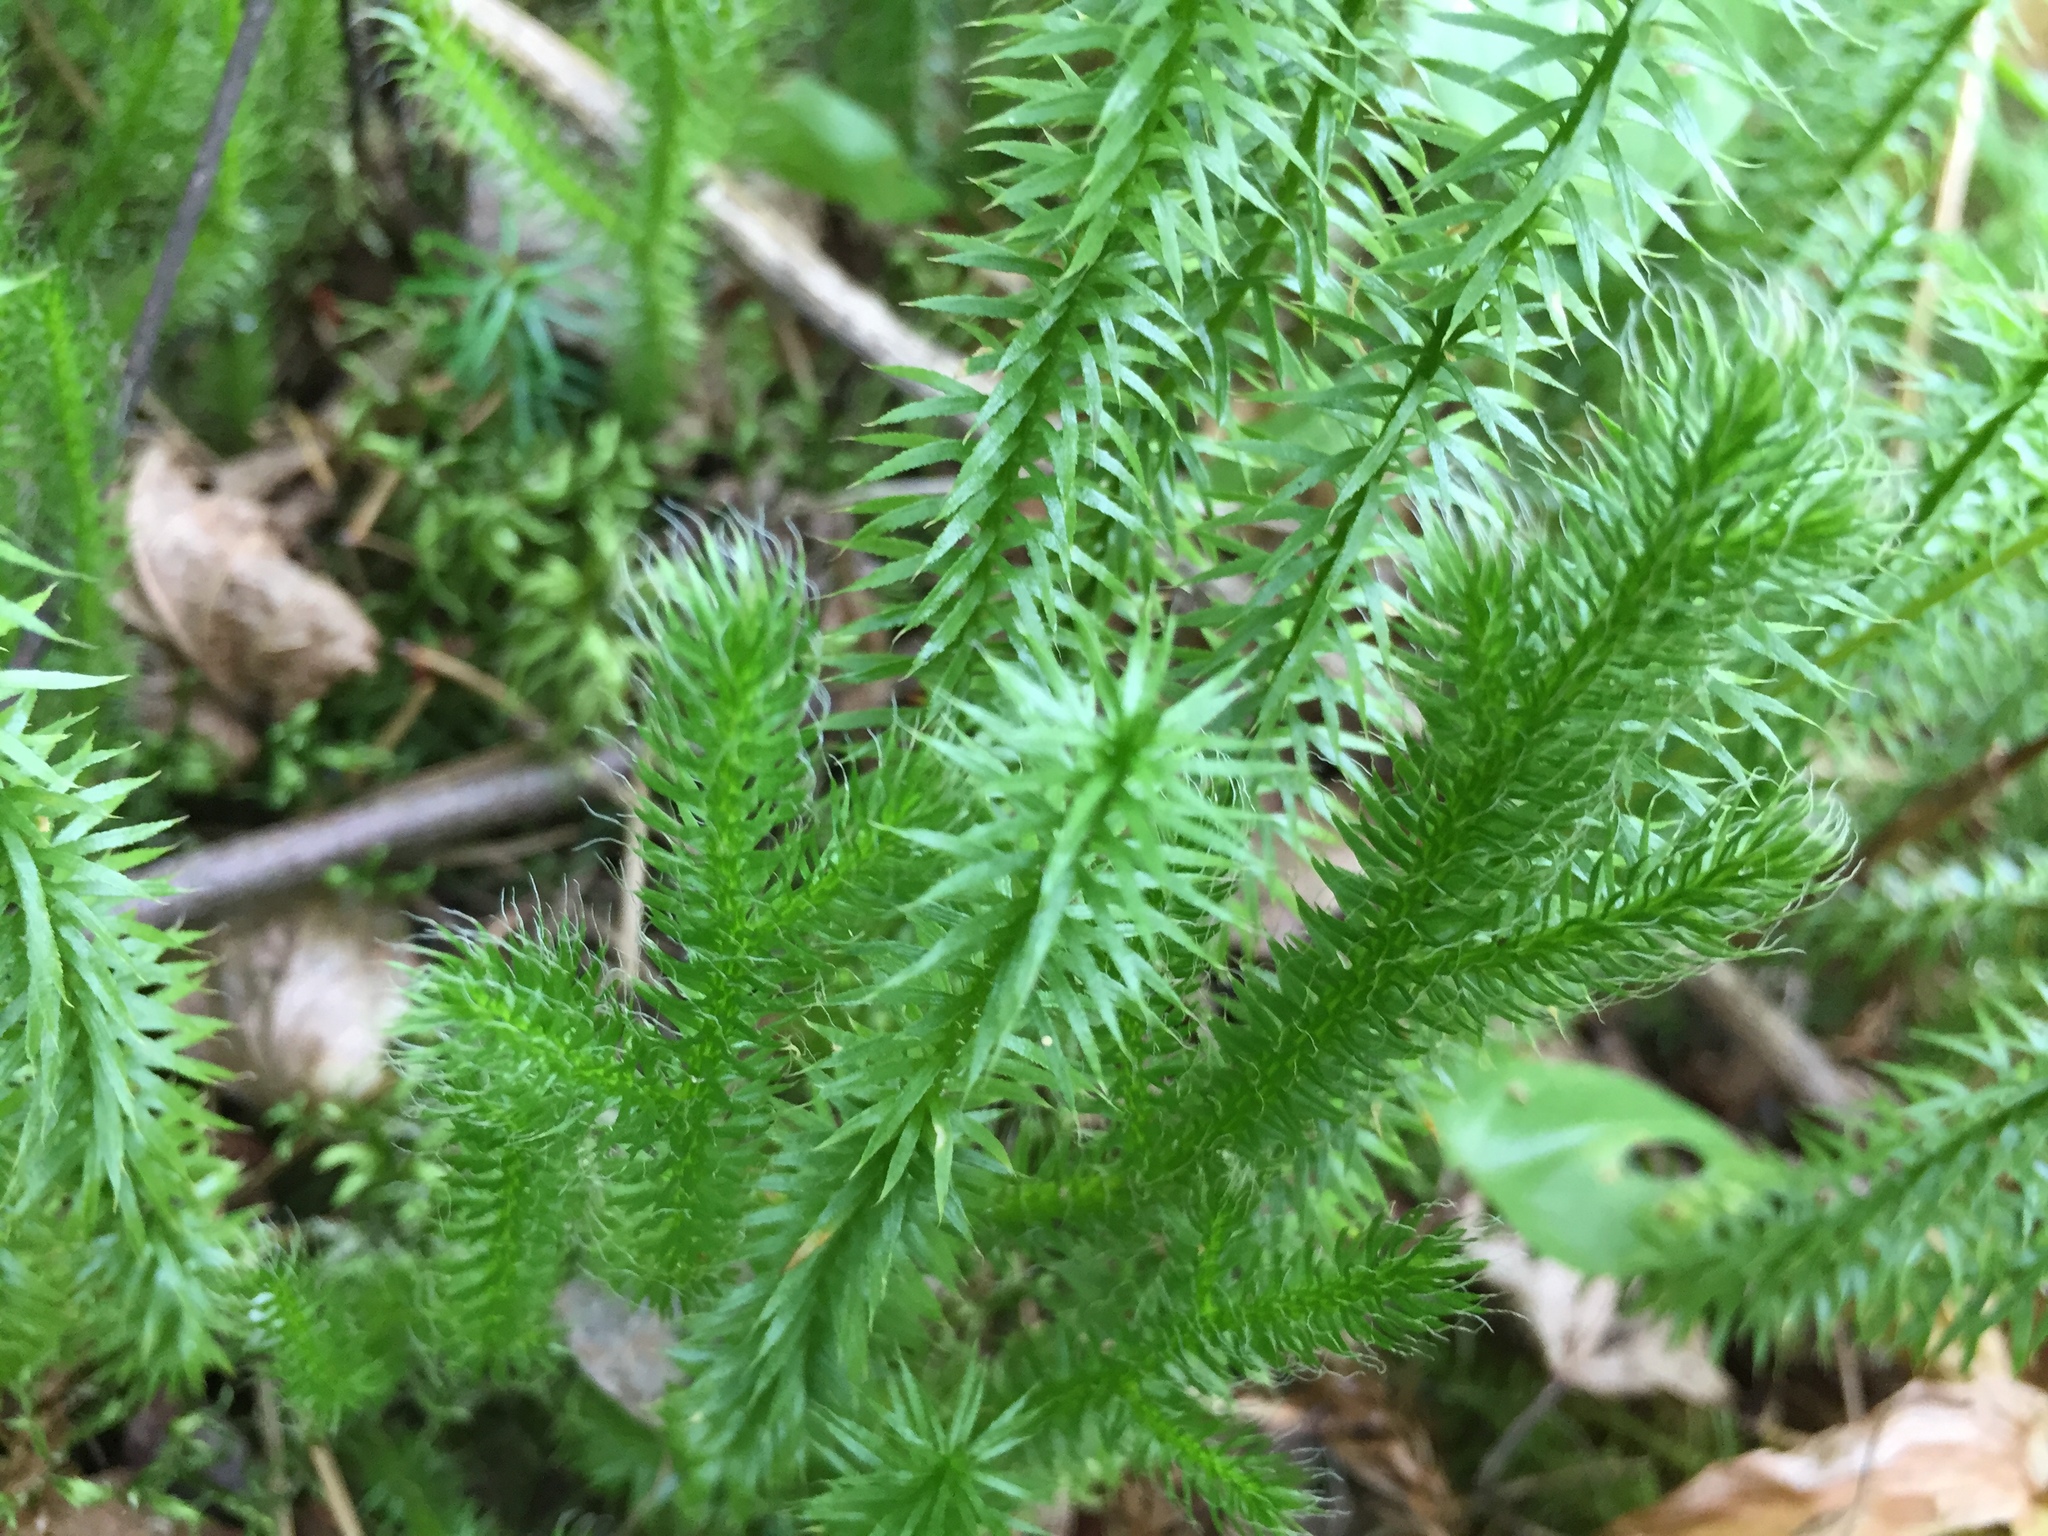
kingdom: Plantae
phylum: Tracheophyta
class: Lycopodiopsida
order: Lycopodiales
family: Lycopodiaceae
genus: Spinulum
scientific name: Spinulum annotinum
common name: Interrupted club-moss
